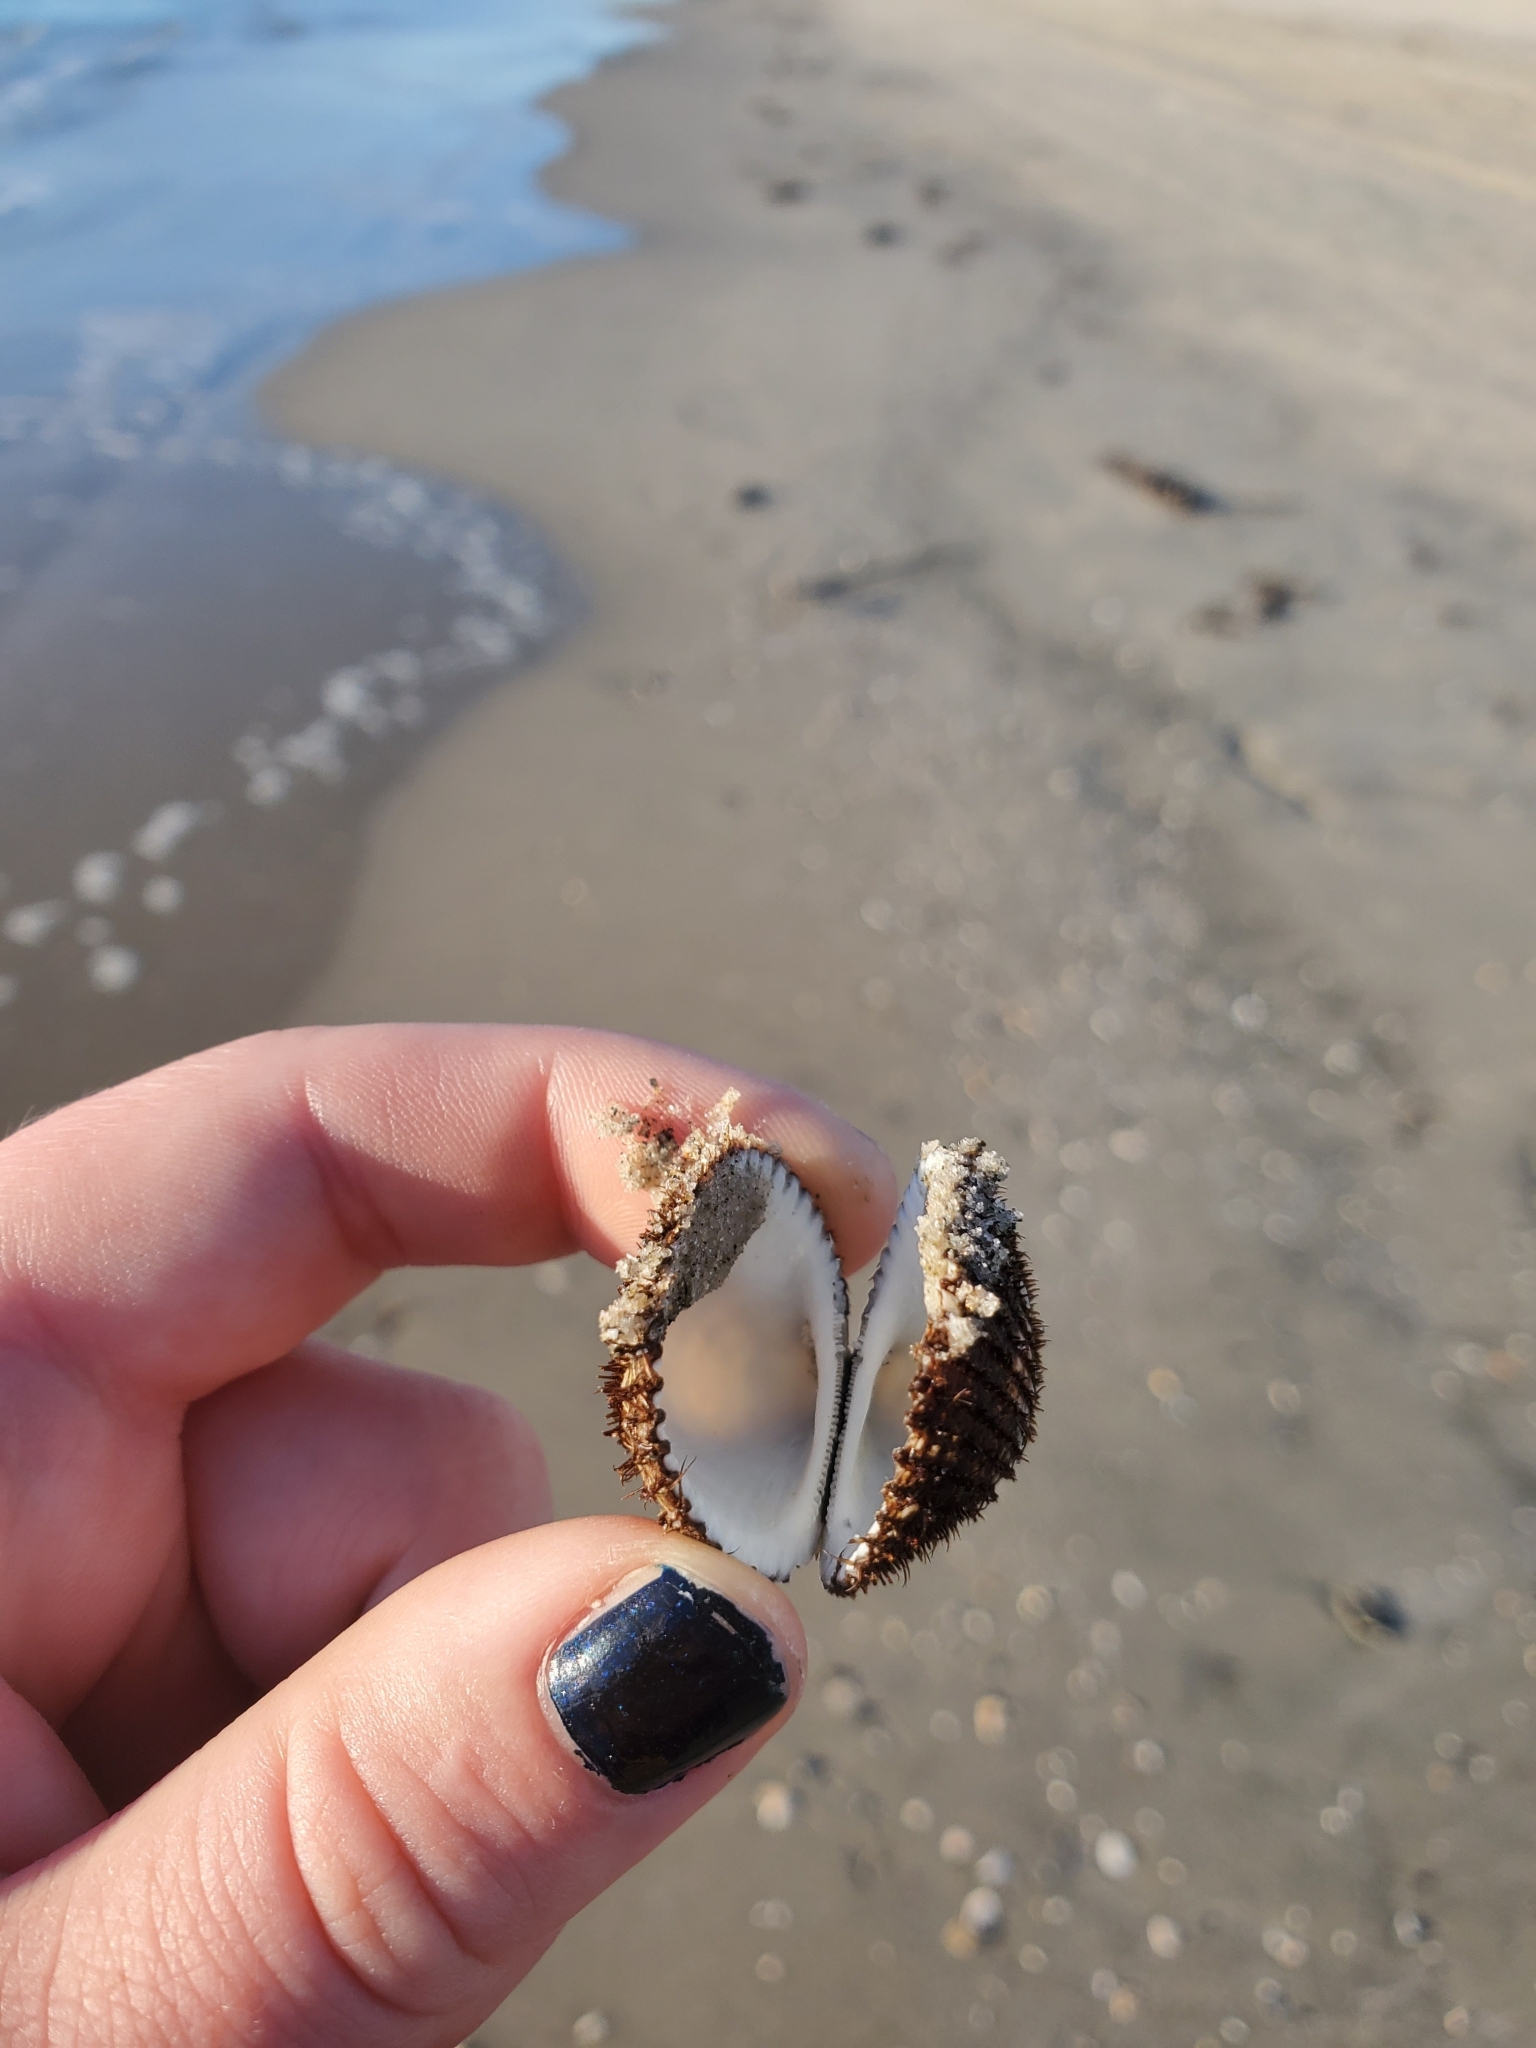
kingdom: Animalia
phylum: Mollusca
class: Bivalvia
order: Arcida
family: Arcidae
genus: Lunarca
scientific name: Lunarca ovalis
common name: Blood ark
